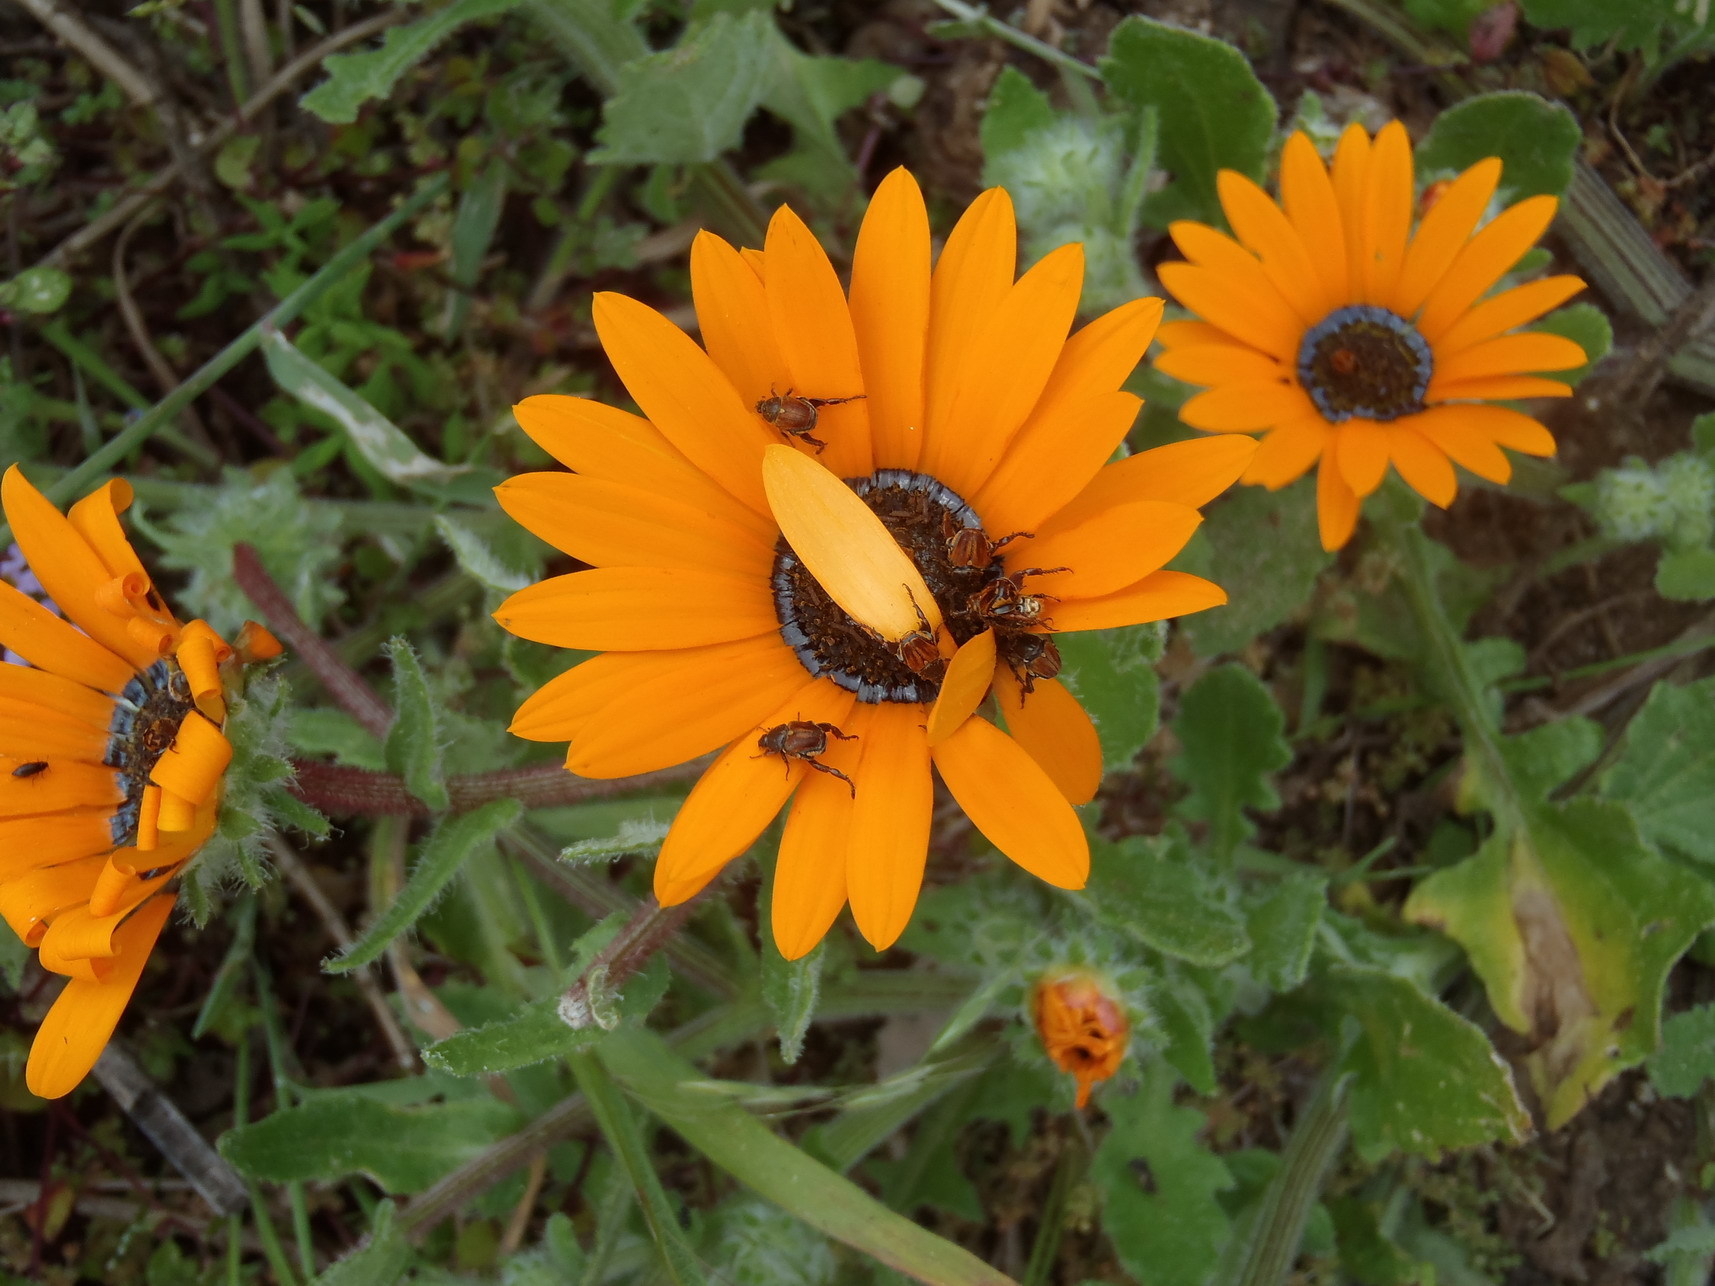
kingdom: Plantae
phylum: Tracheophyta
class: Magnoliopsida
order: Asterales
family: Asteraceae
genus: Arctotis
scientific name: Arctotis hirsuta
